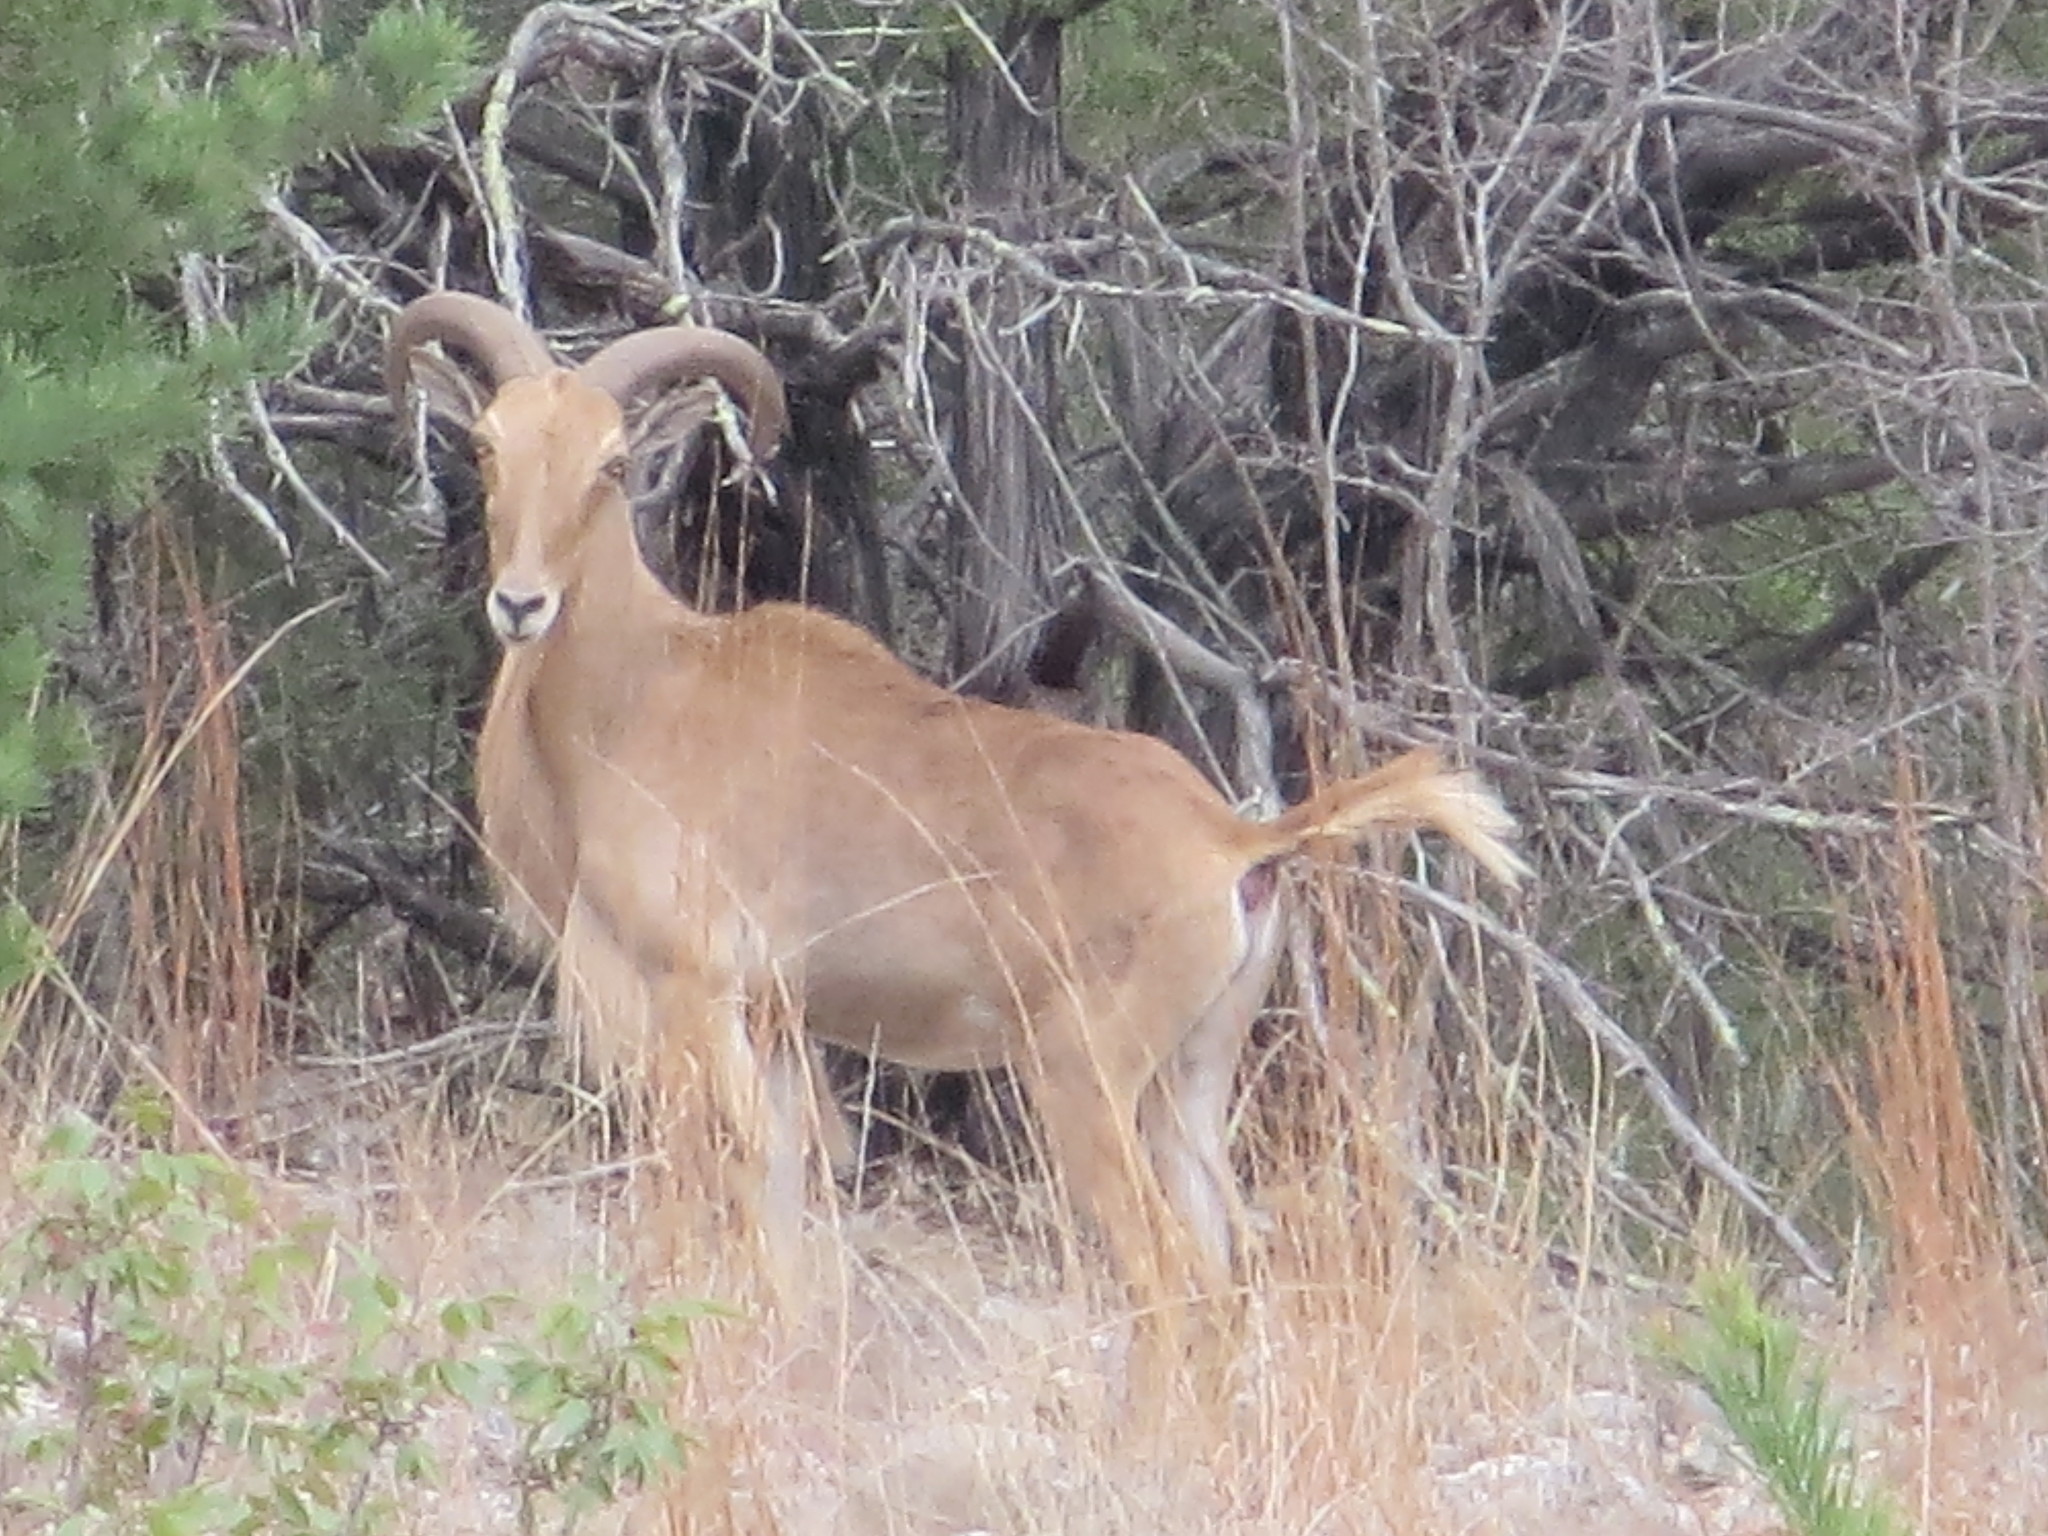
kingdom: Animalia
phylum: Chordata
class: Mammalia
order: Artiodactyla
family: Bovidae
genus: Ammotragus
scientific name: Ammotragus lervia
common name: Barbary sheep
